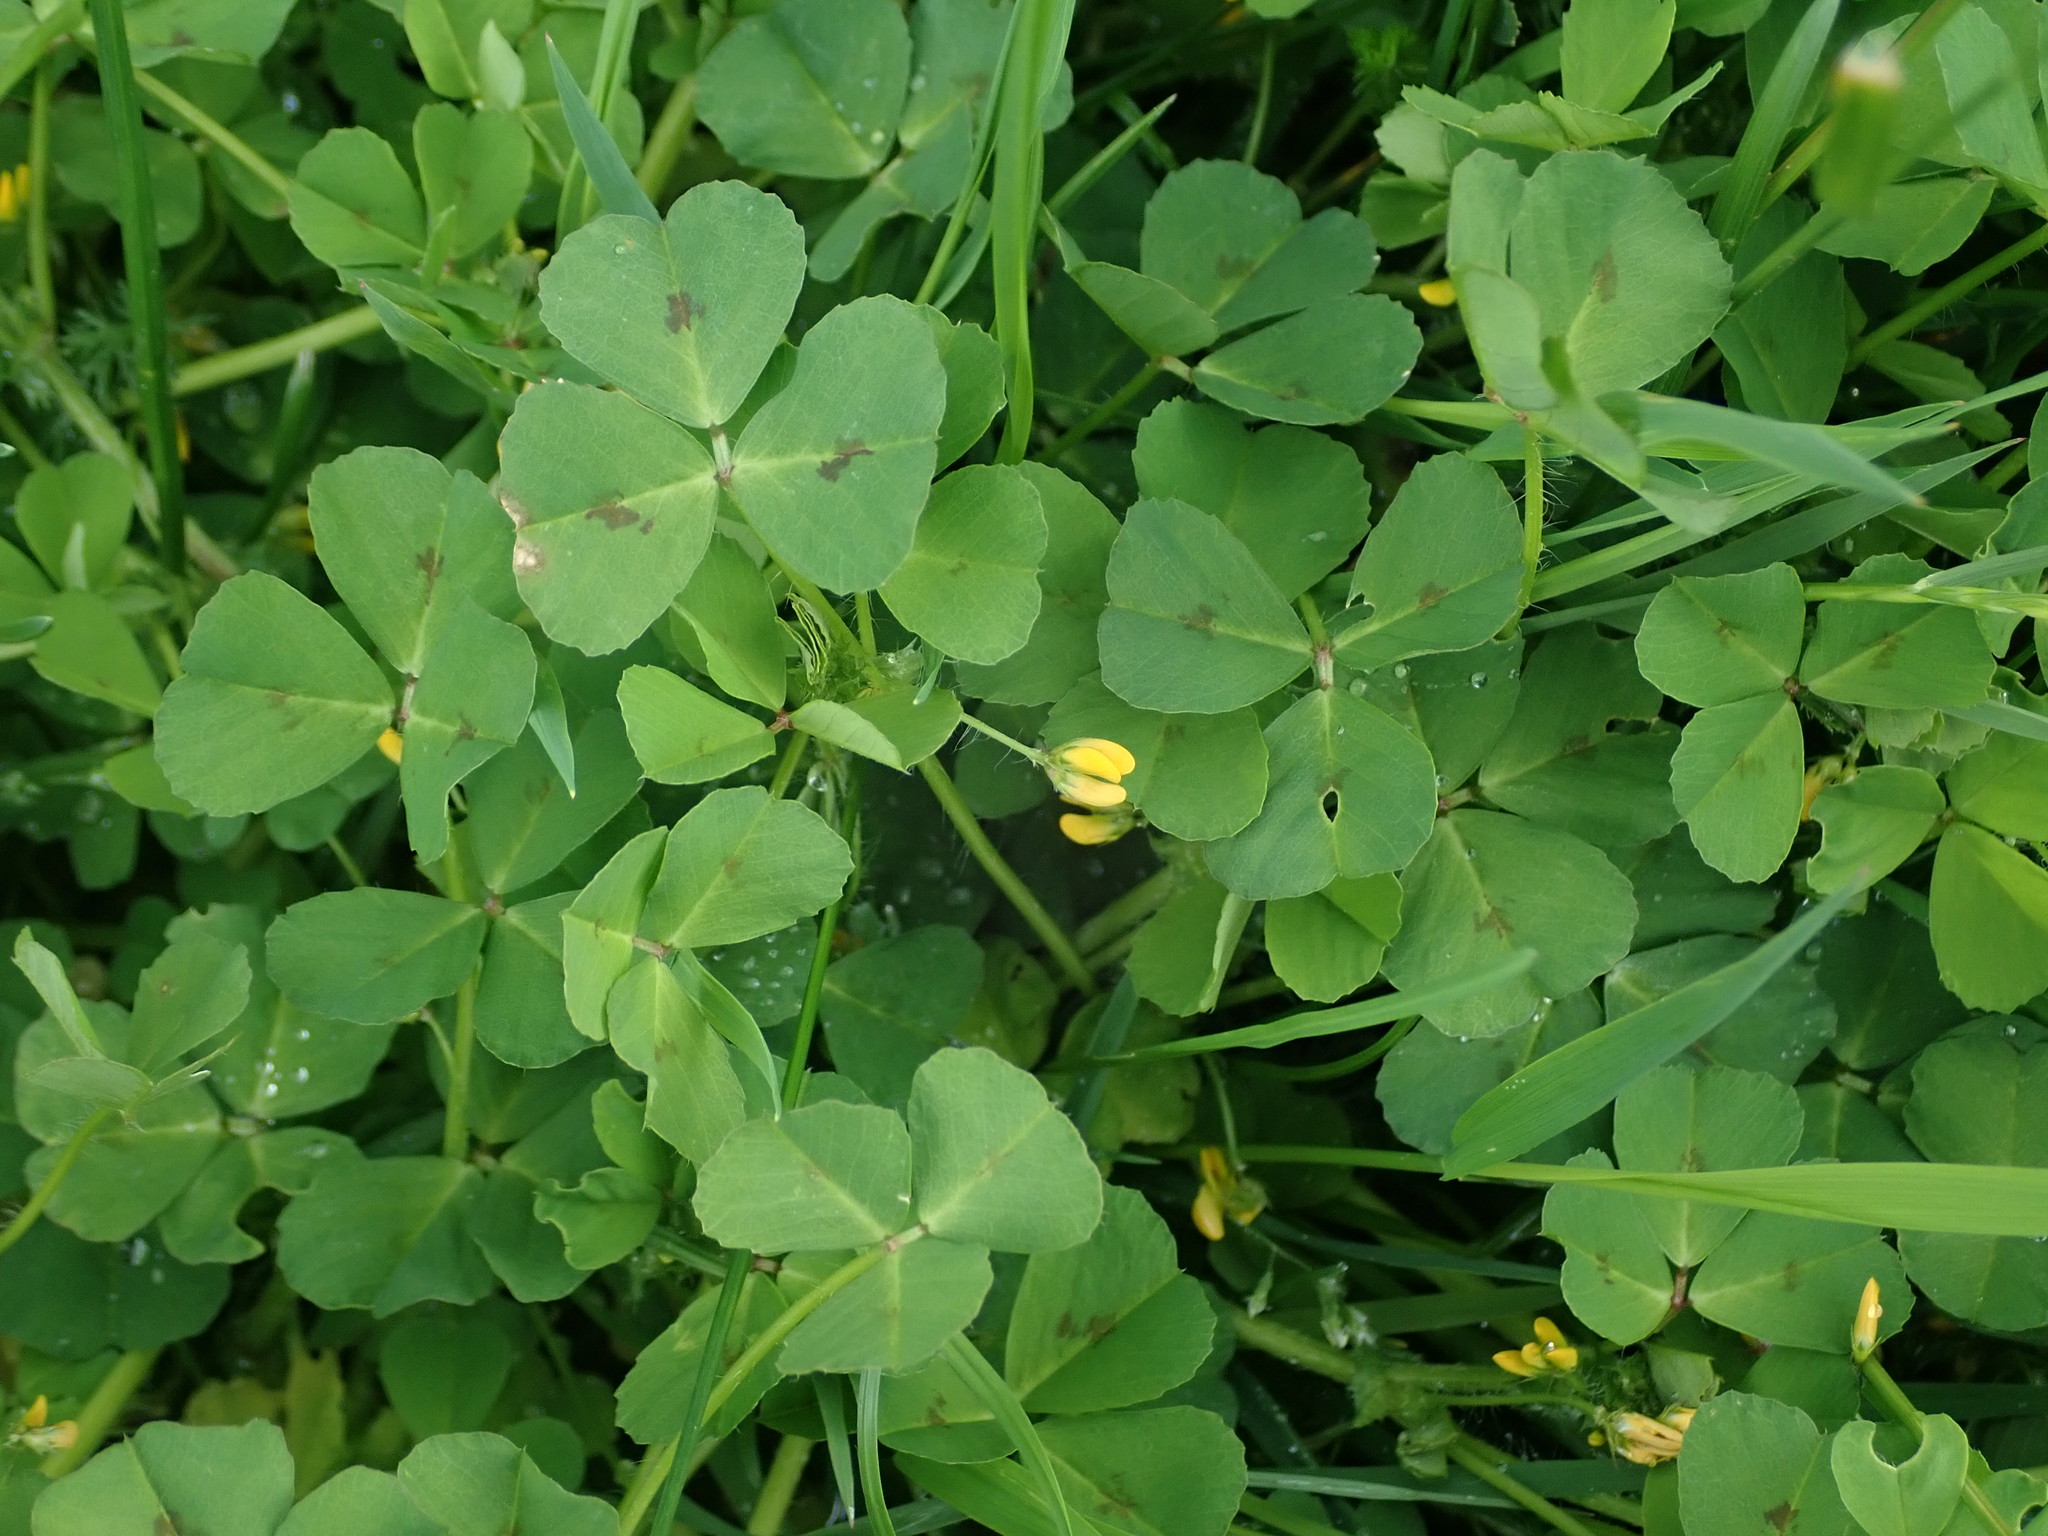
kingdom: Plantae
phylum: Tracheophyta
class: Magnoliopsida
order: Fabales
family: Fabaceae
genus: Medicago
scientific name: Medicago arabica
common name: Spotted medick
